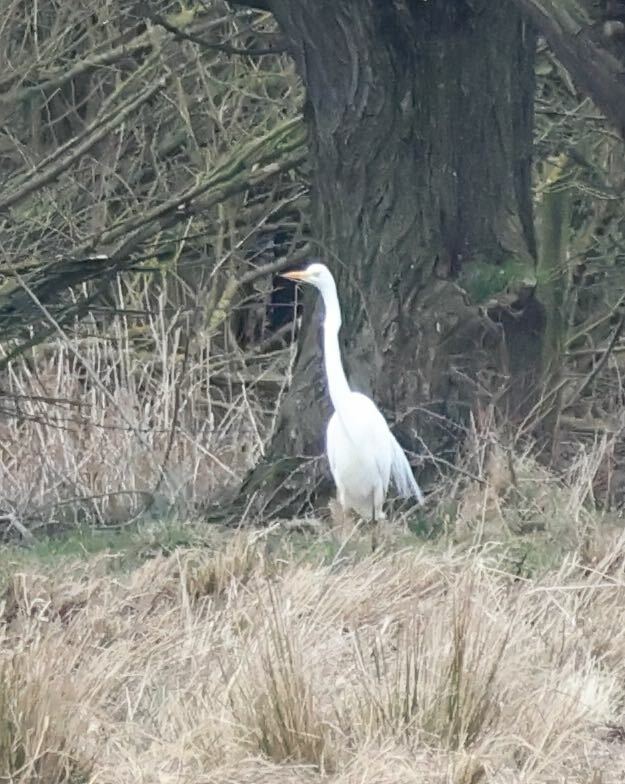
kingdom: Animalia
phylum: Chordata
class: Aves
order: Pelecaniformes
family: Ardeidae
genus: Ardea
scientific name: Ardea alba
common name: Great egret
